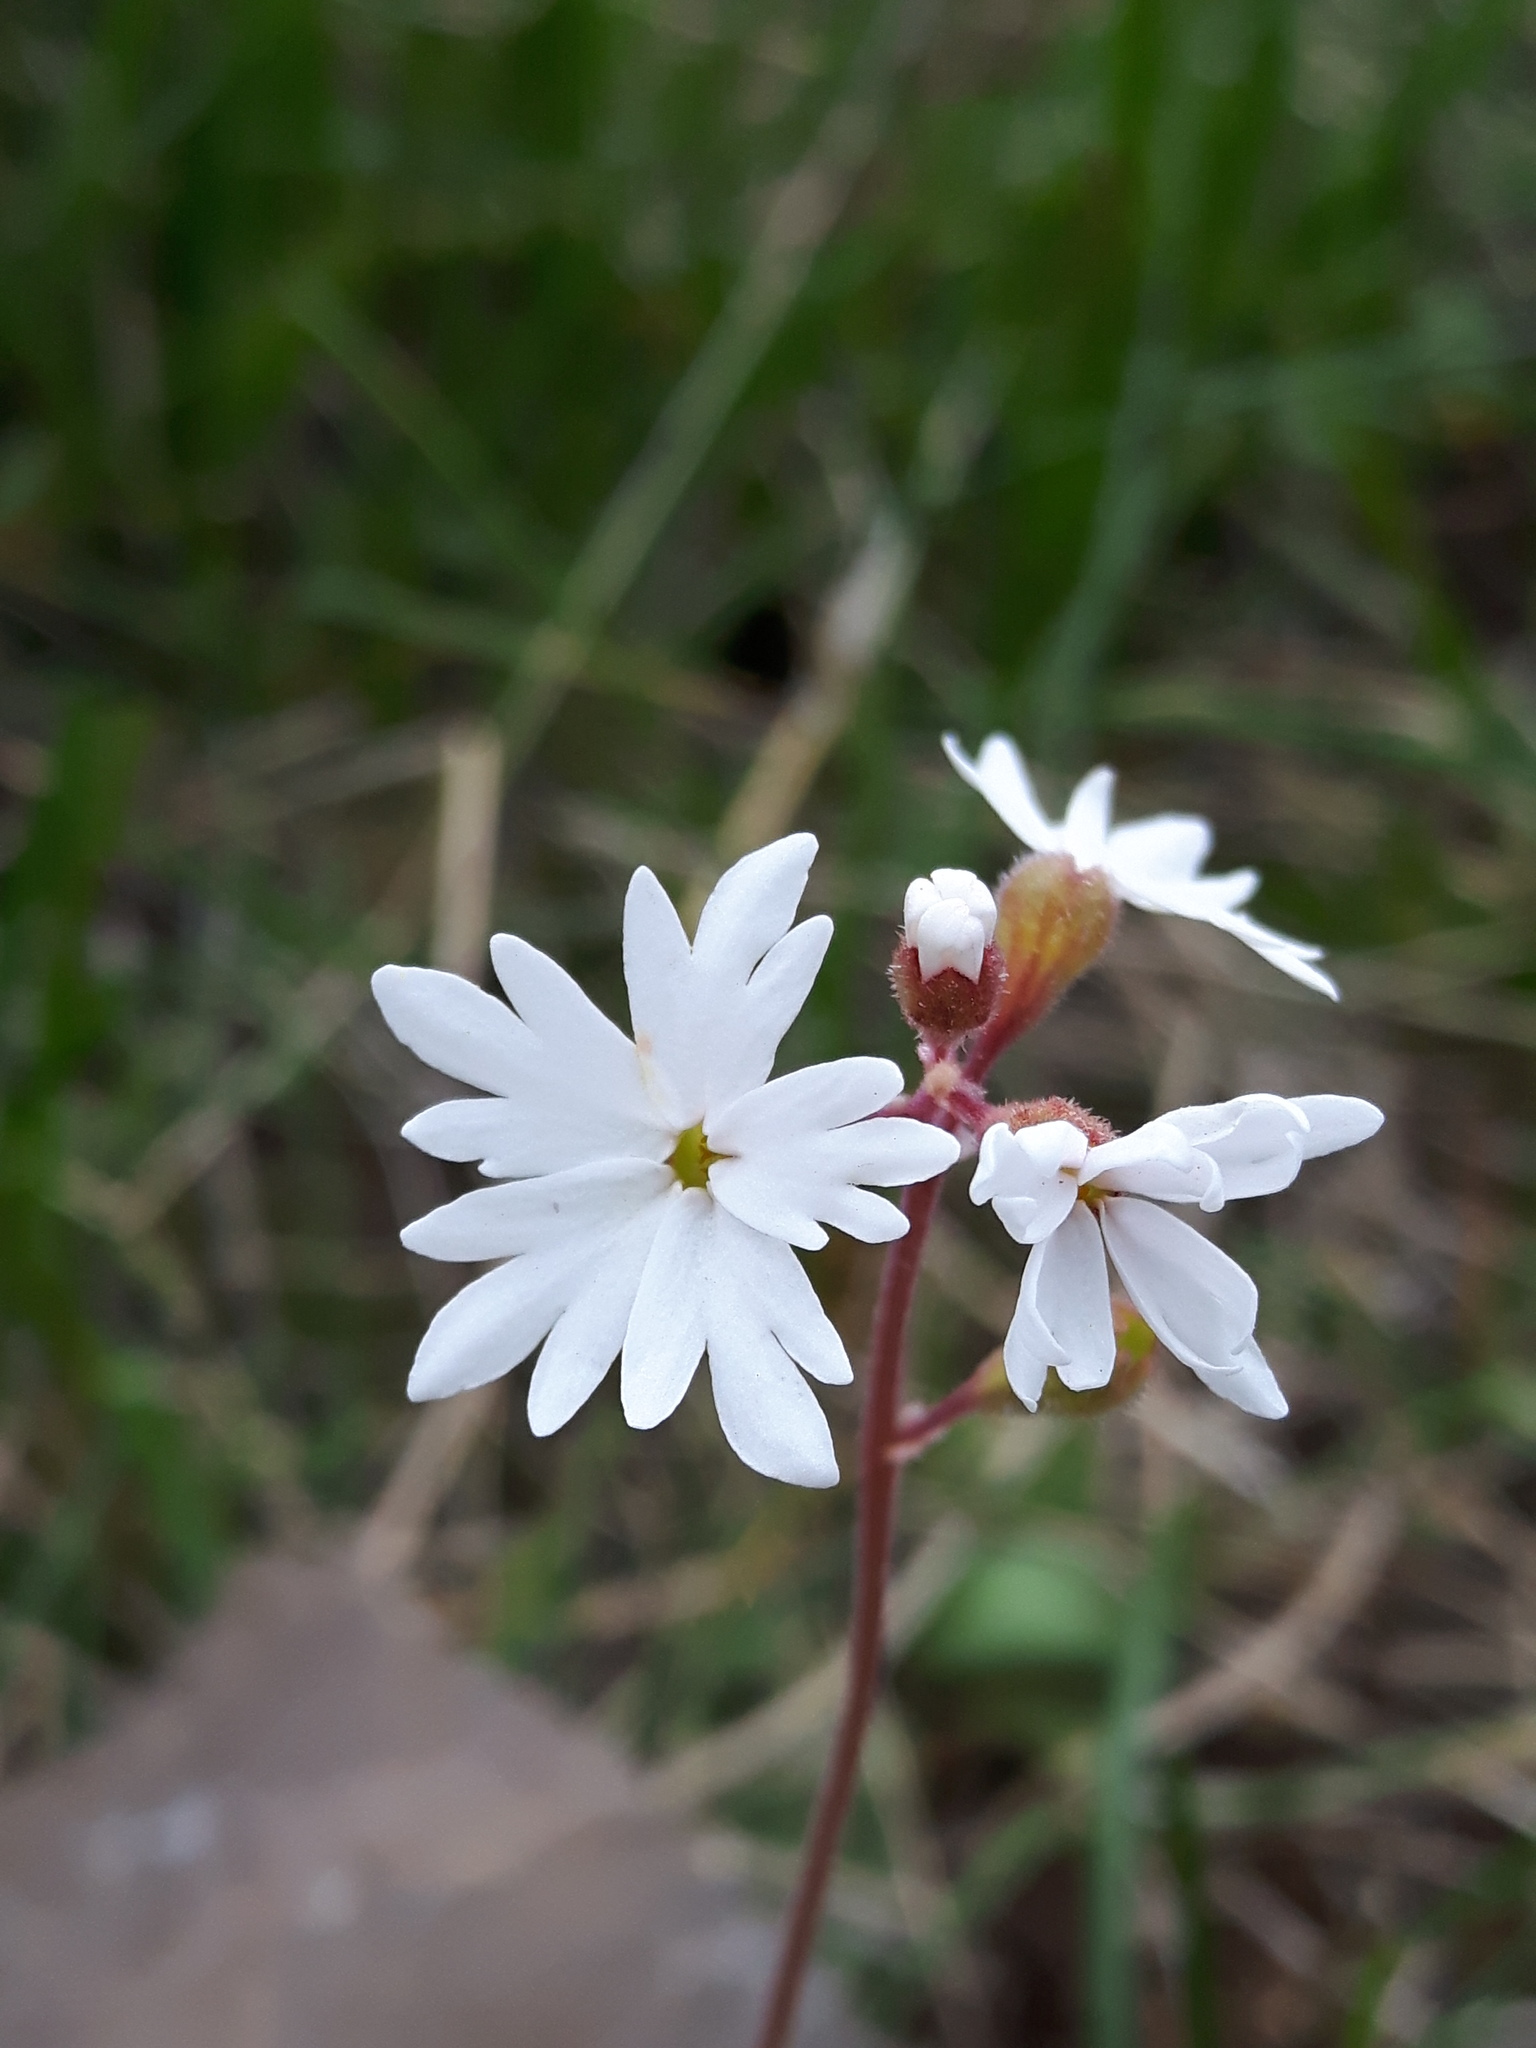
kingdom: Plantae
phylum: Tracheophyta
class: Magnoliopsida
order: Saxifragales
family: Saxifragaceae
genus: Lithophragma
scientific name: Lithophragma parviflorum
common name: Small-flowered fringe-cup
